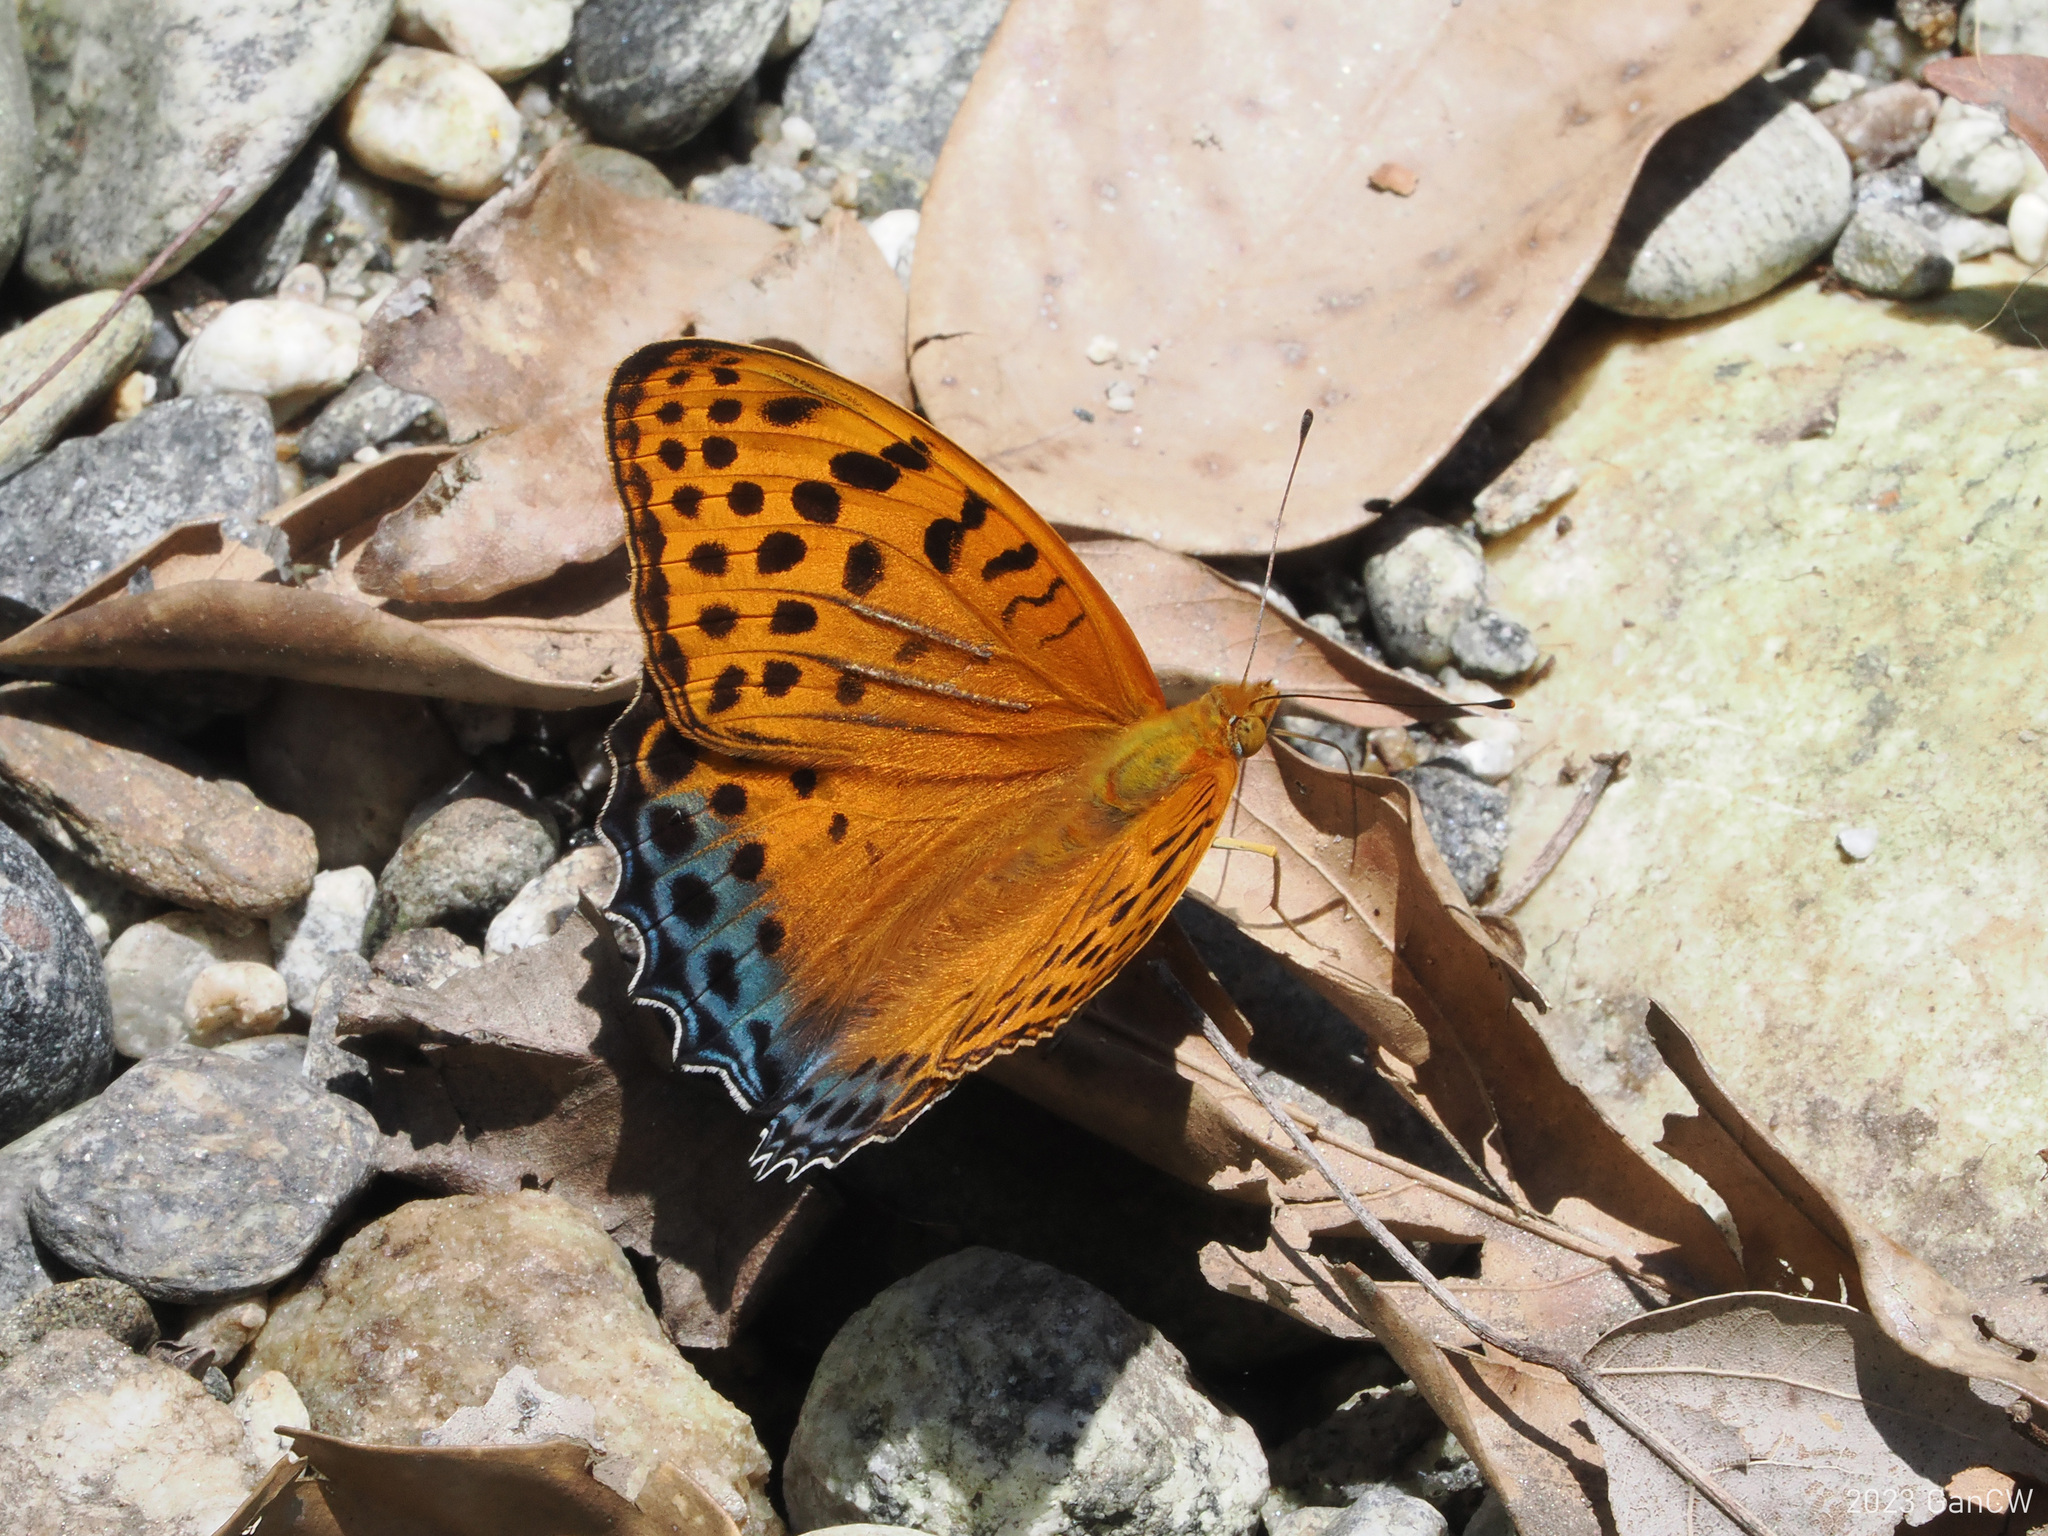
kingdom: Animalia
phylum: Arthropoda
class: Insecta
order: Lepidoptera
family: Nymphalidae
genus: Childrena
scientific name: Childrena childreni
